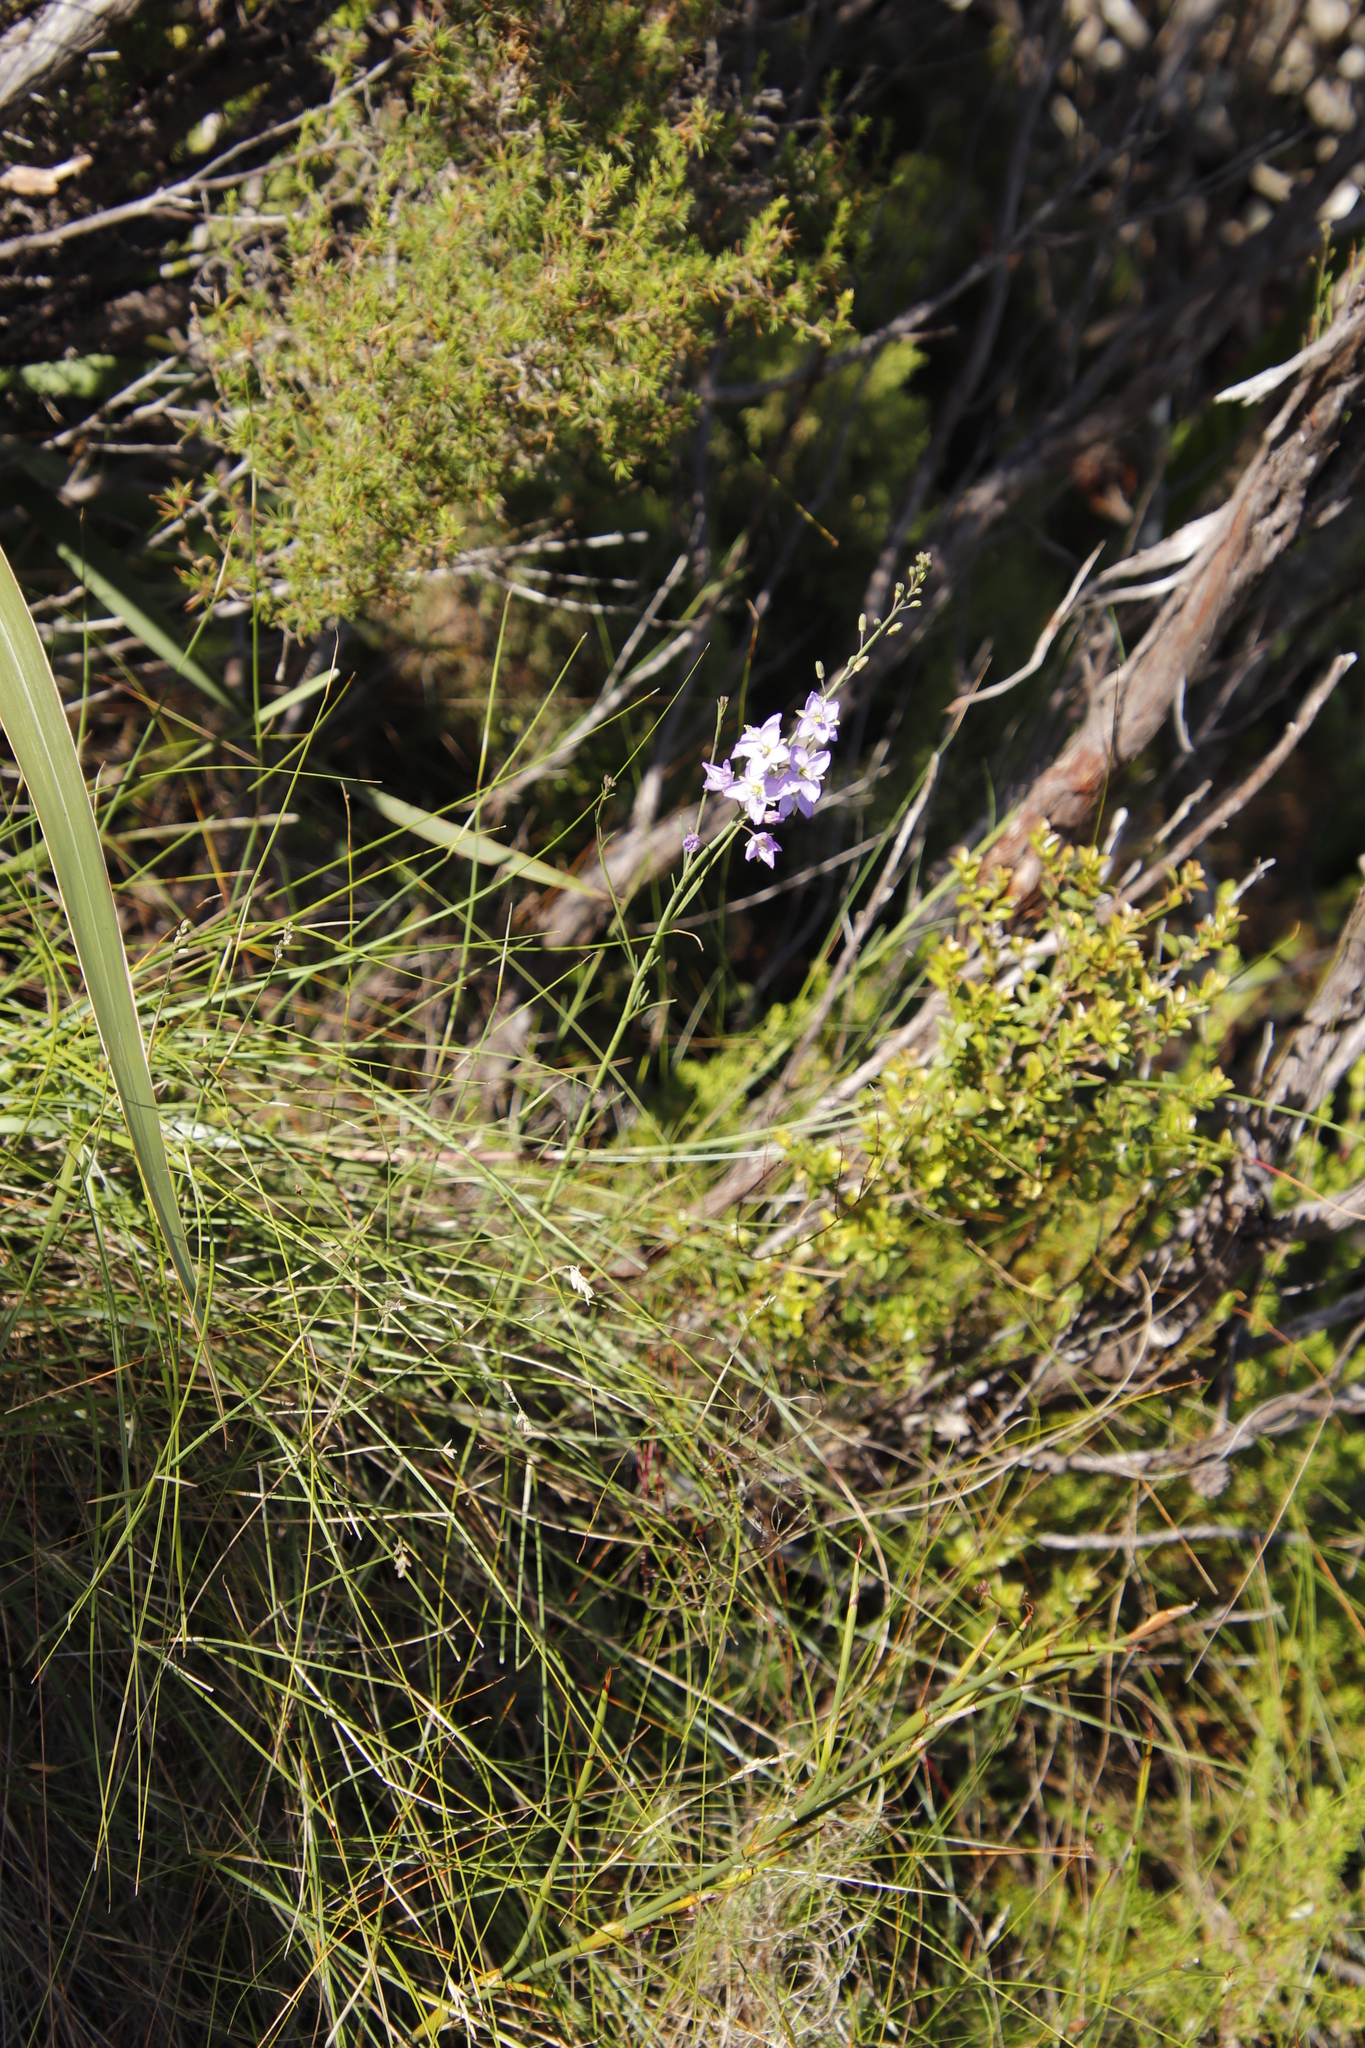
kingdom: Plantae
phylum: Tracheophyta
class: Magnoliopsida
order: Brassicales
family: Brassicaceae
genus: Heliophila
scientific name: Heliophila linearis
